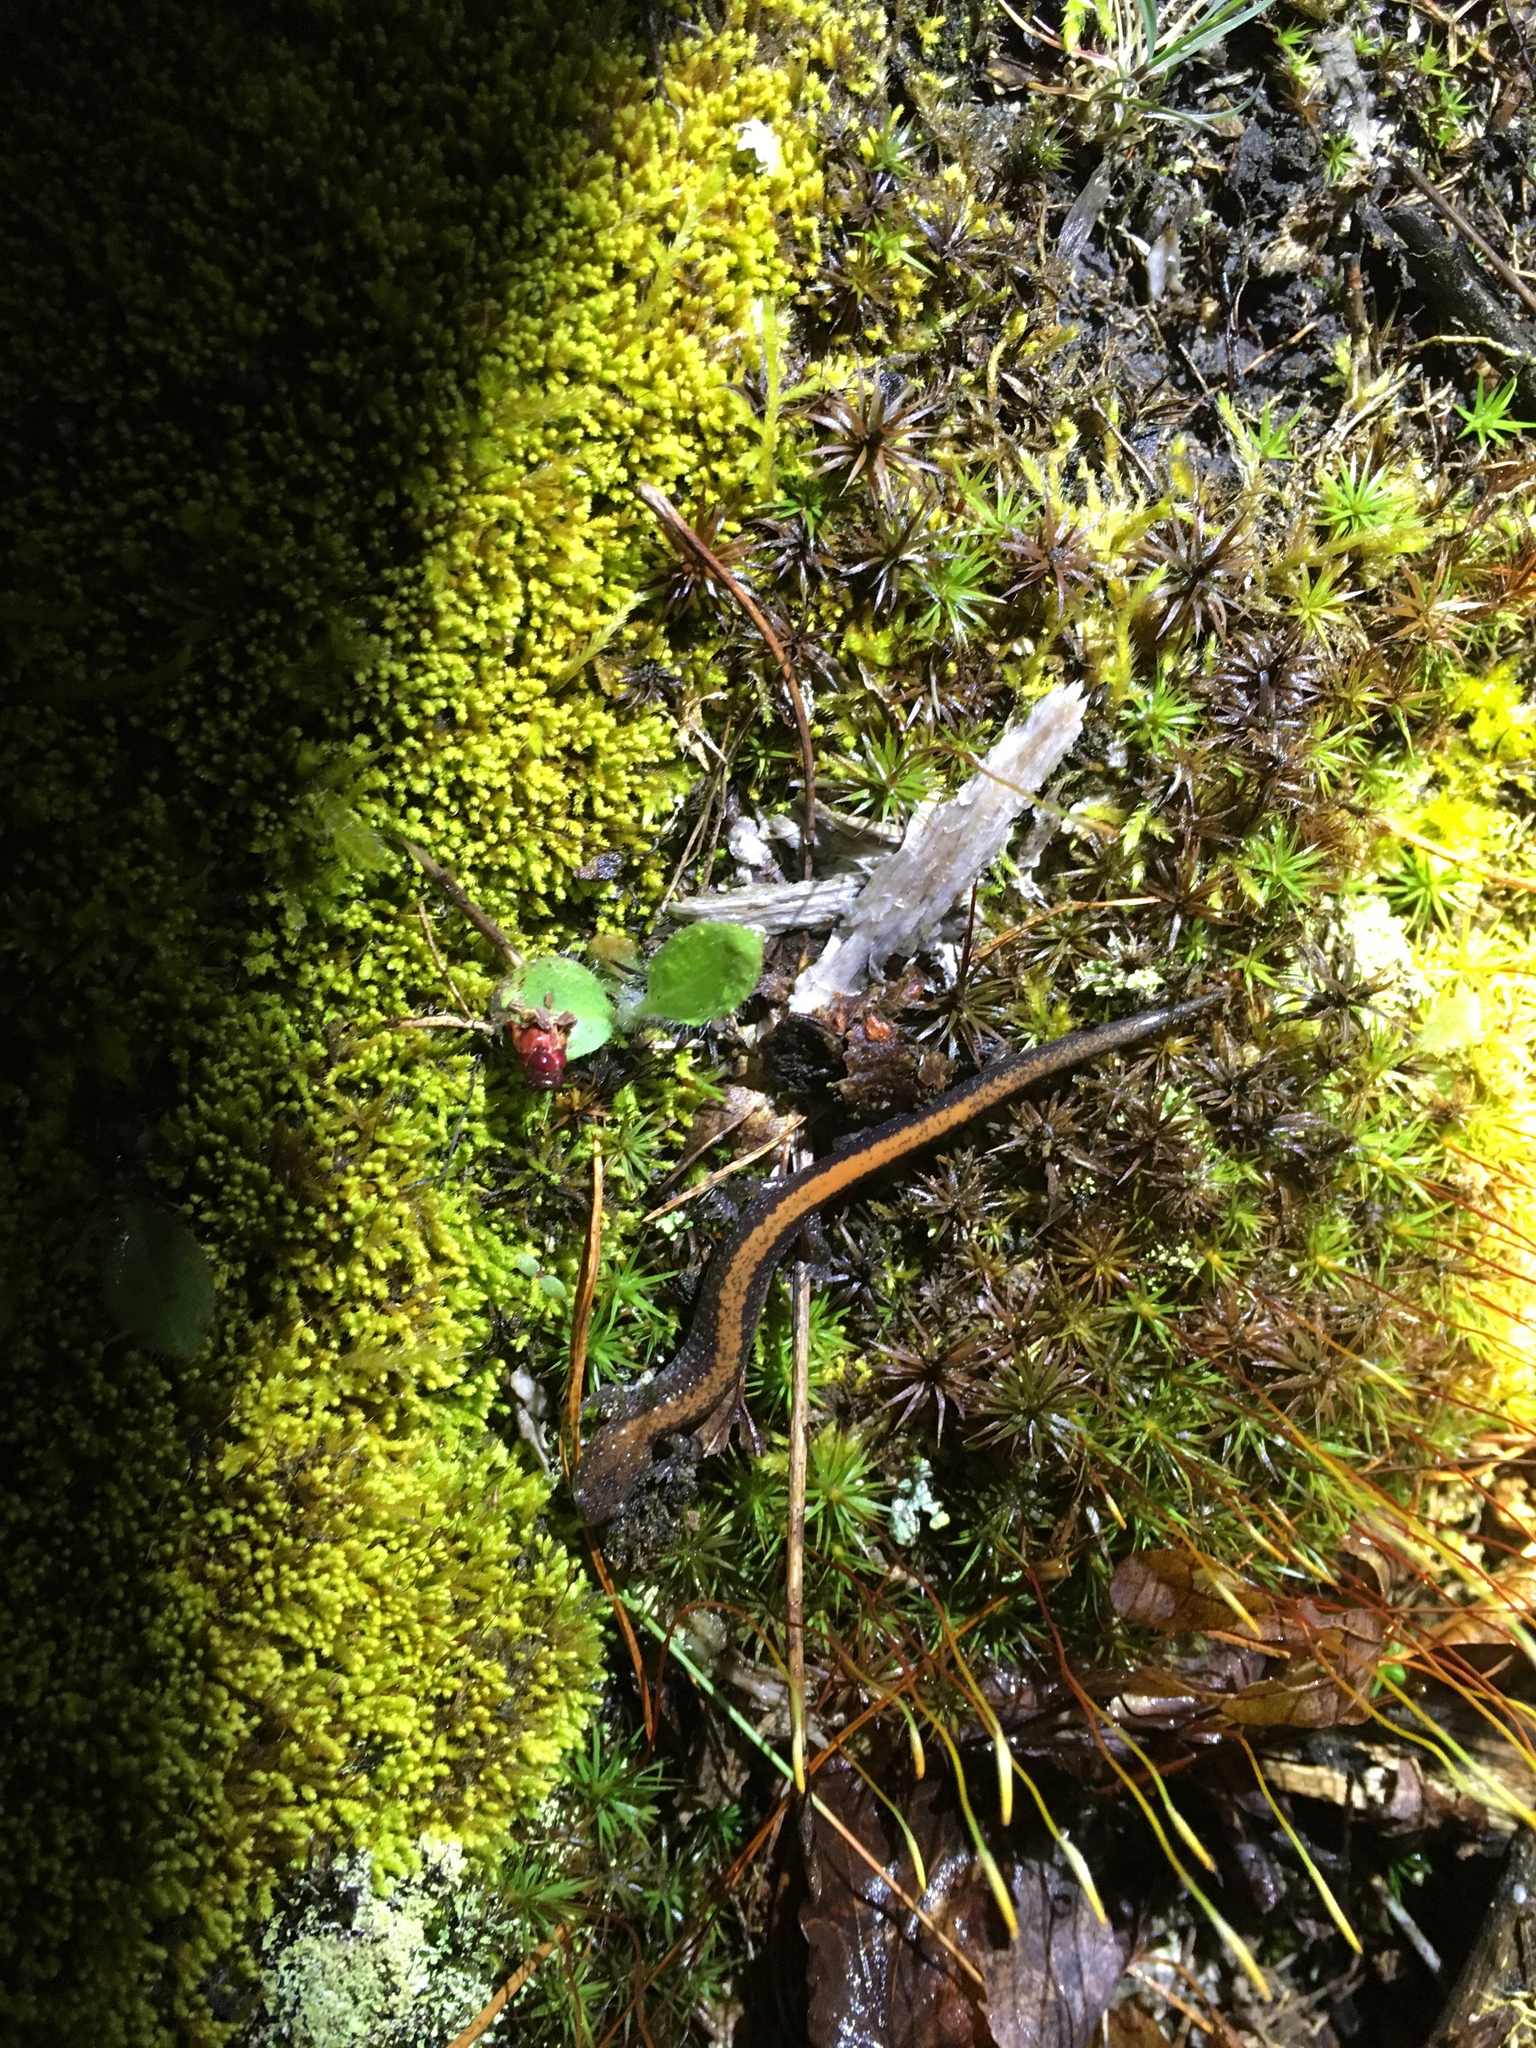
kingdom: Animalia
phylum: Chordata
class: Amphibia
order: Caudata
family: Plethodontidae
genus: Plethodon
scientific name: Plethodon cinereus
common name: Redback salamander
